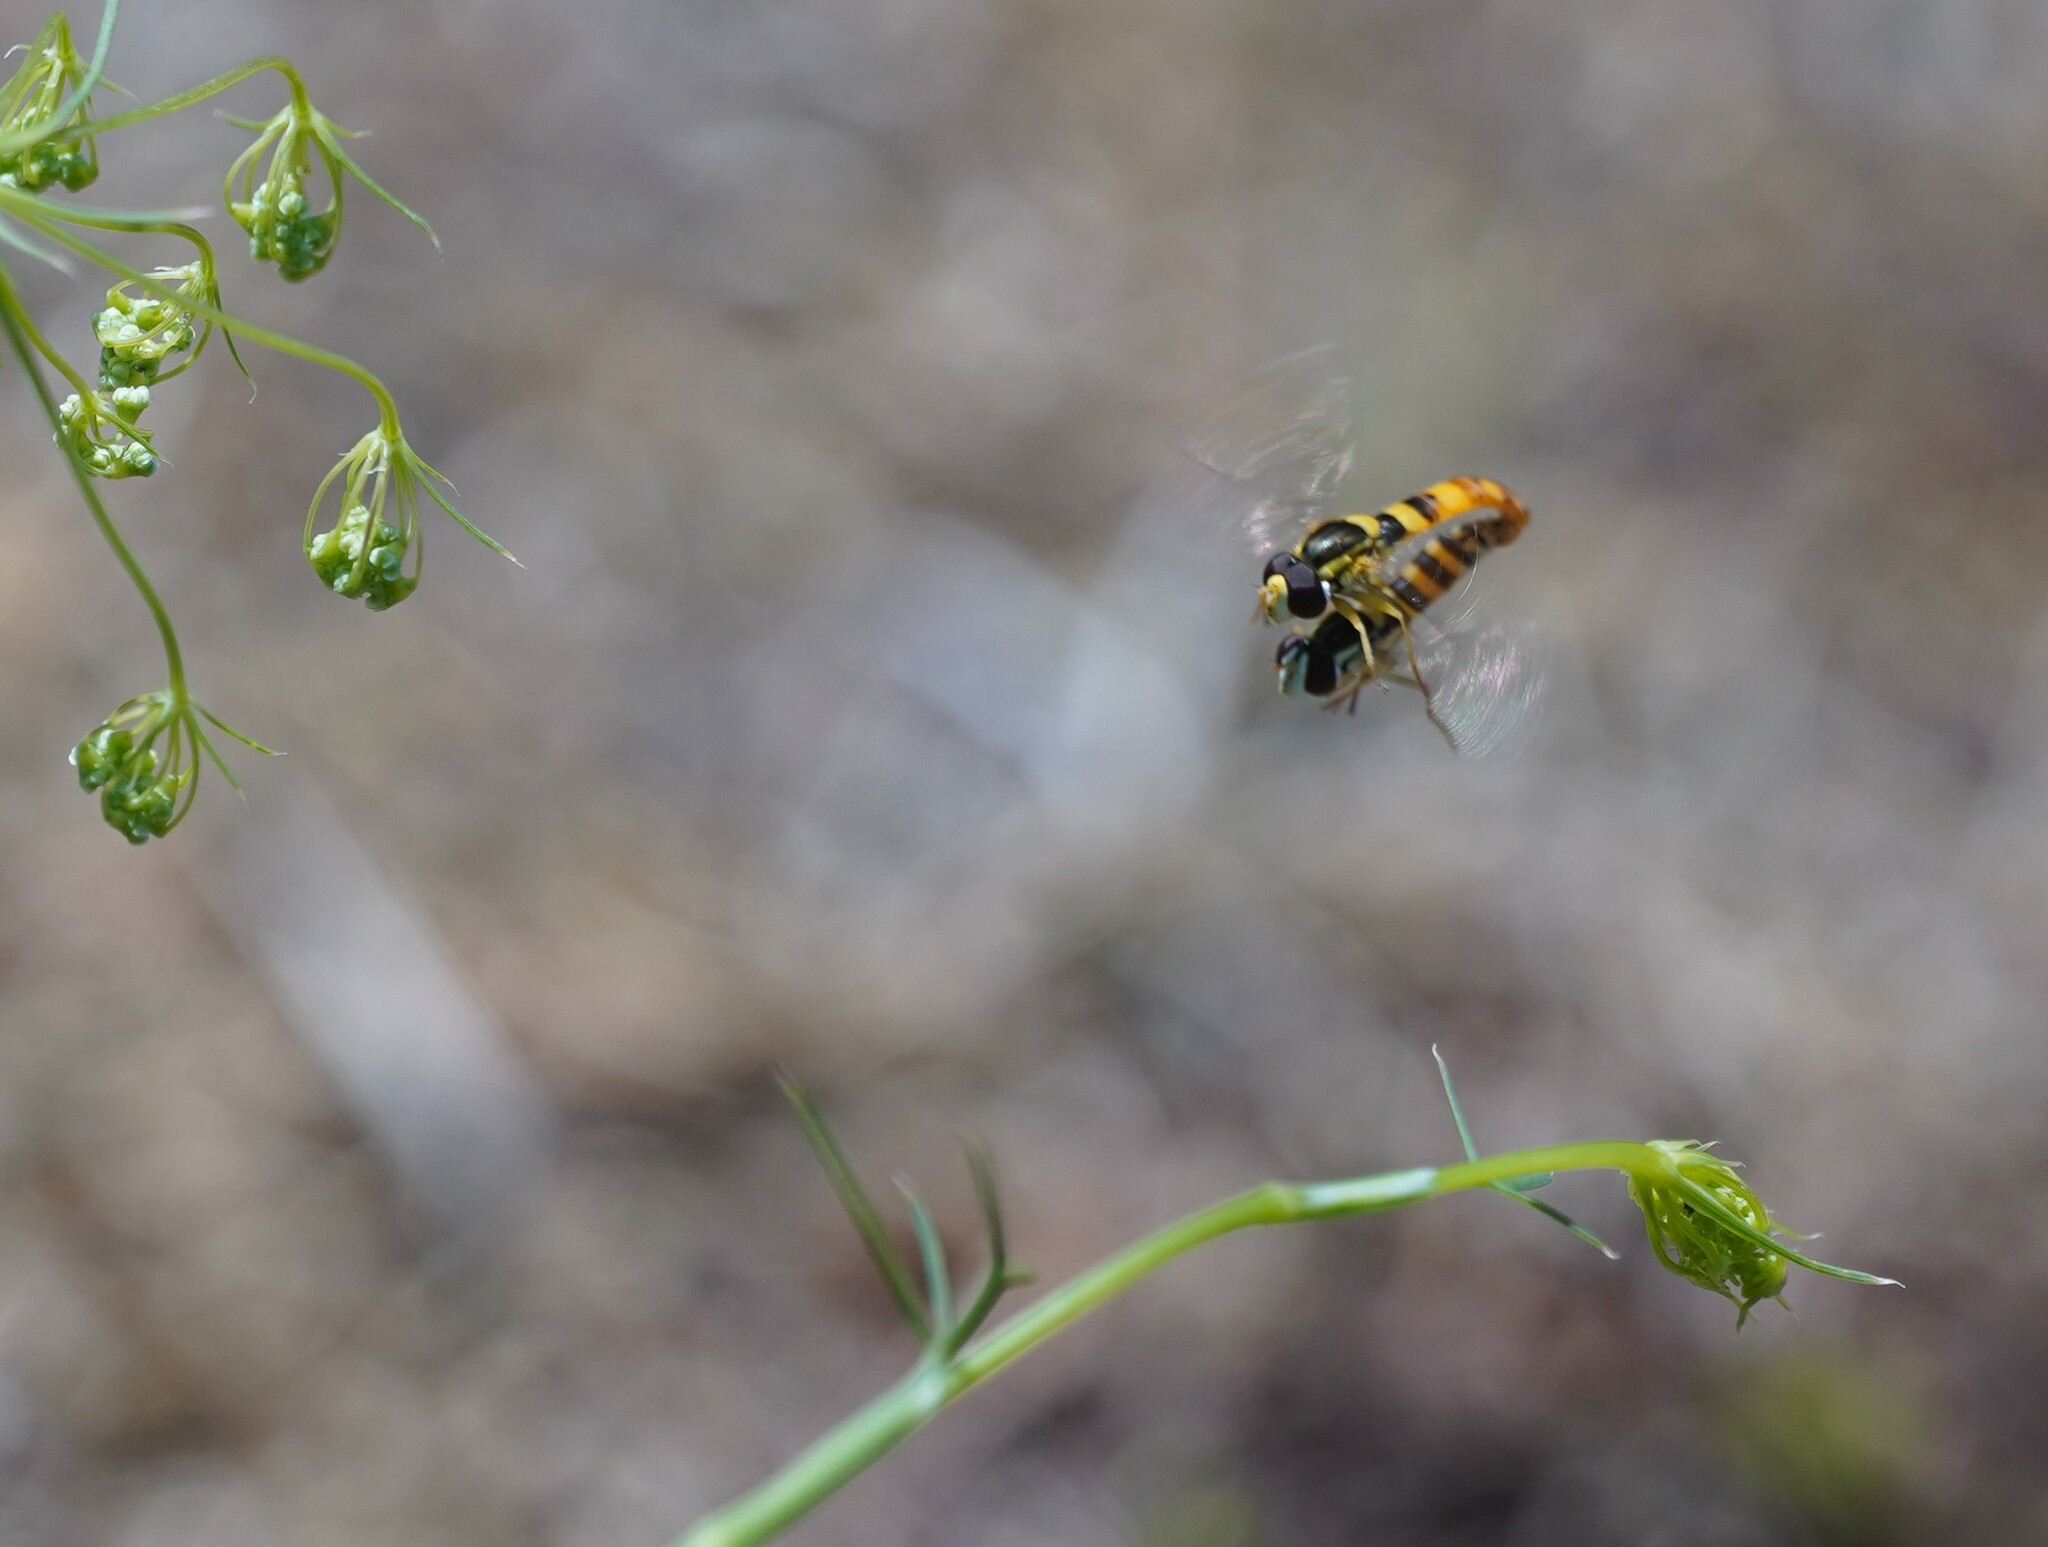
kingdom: Animalia
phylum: Arthropoda
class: Insecta
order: Diptera
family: Syrphidae
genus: Sphaerophoria
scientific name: Sphaerophoria
